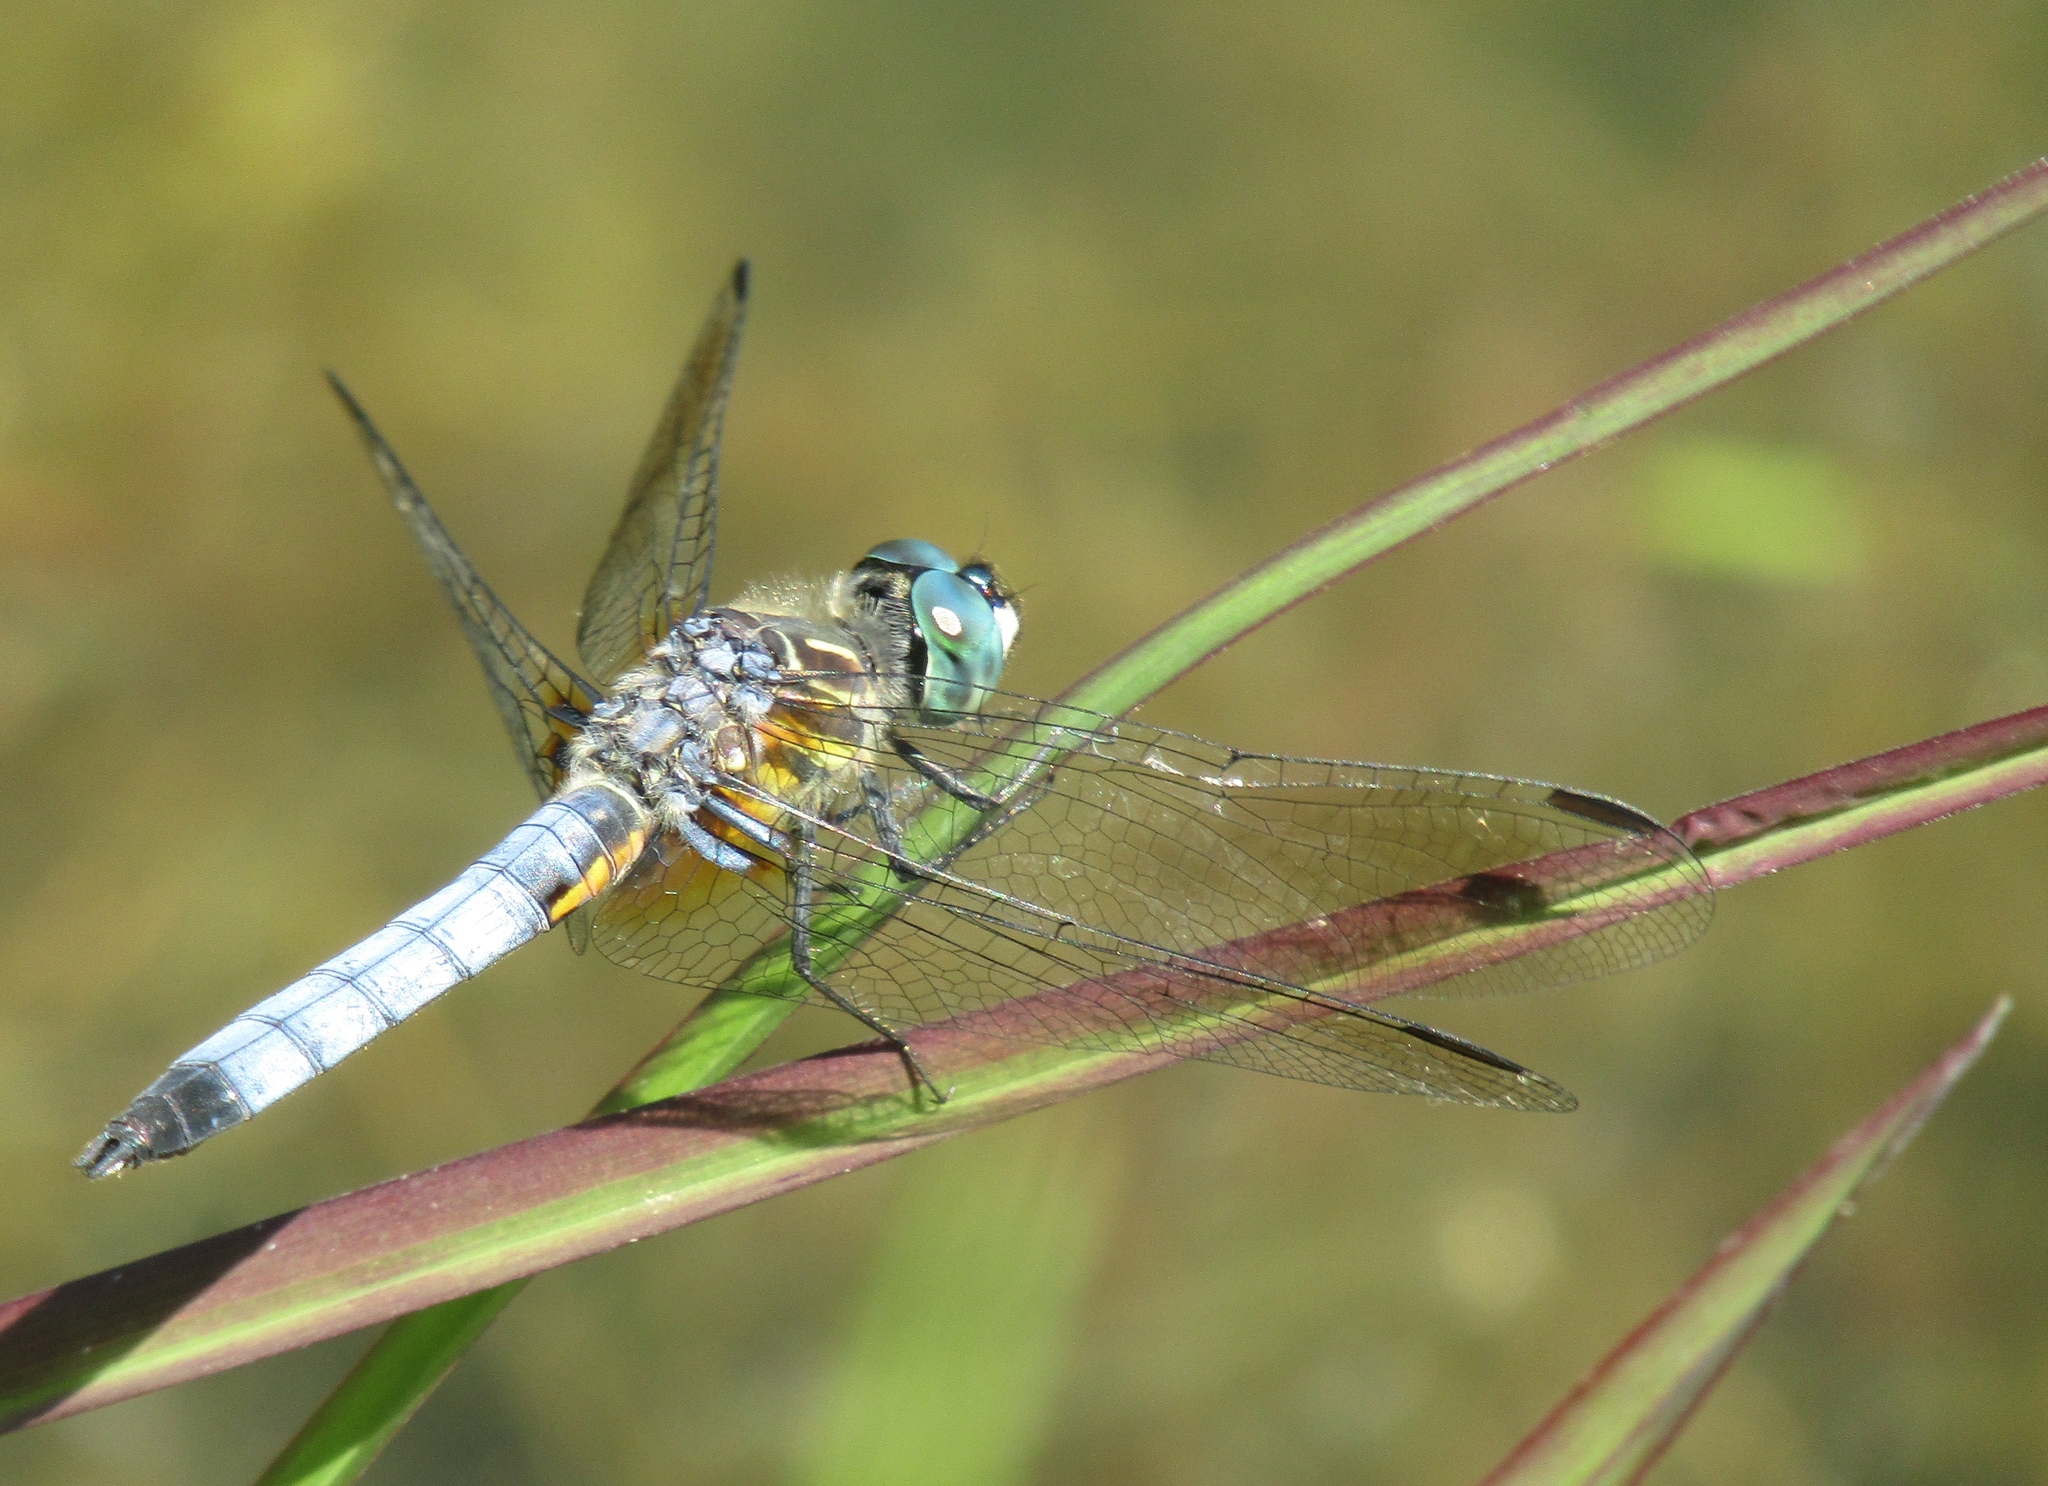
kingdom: Animalia
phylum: Arthropoda
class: Insecta
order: Odonata
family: Libellulidae
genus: Pachydiplax
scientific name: Pachydiplax longipennis
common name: Blue dasher
